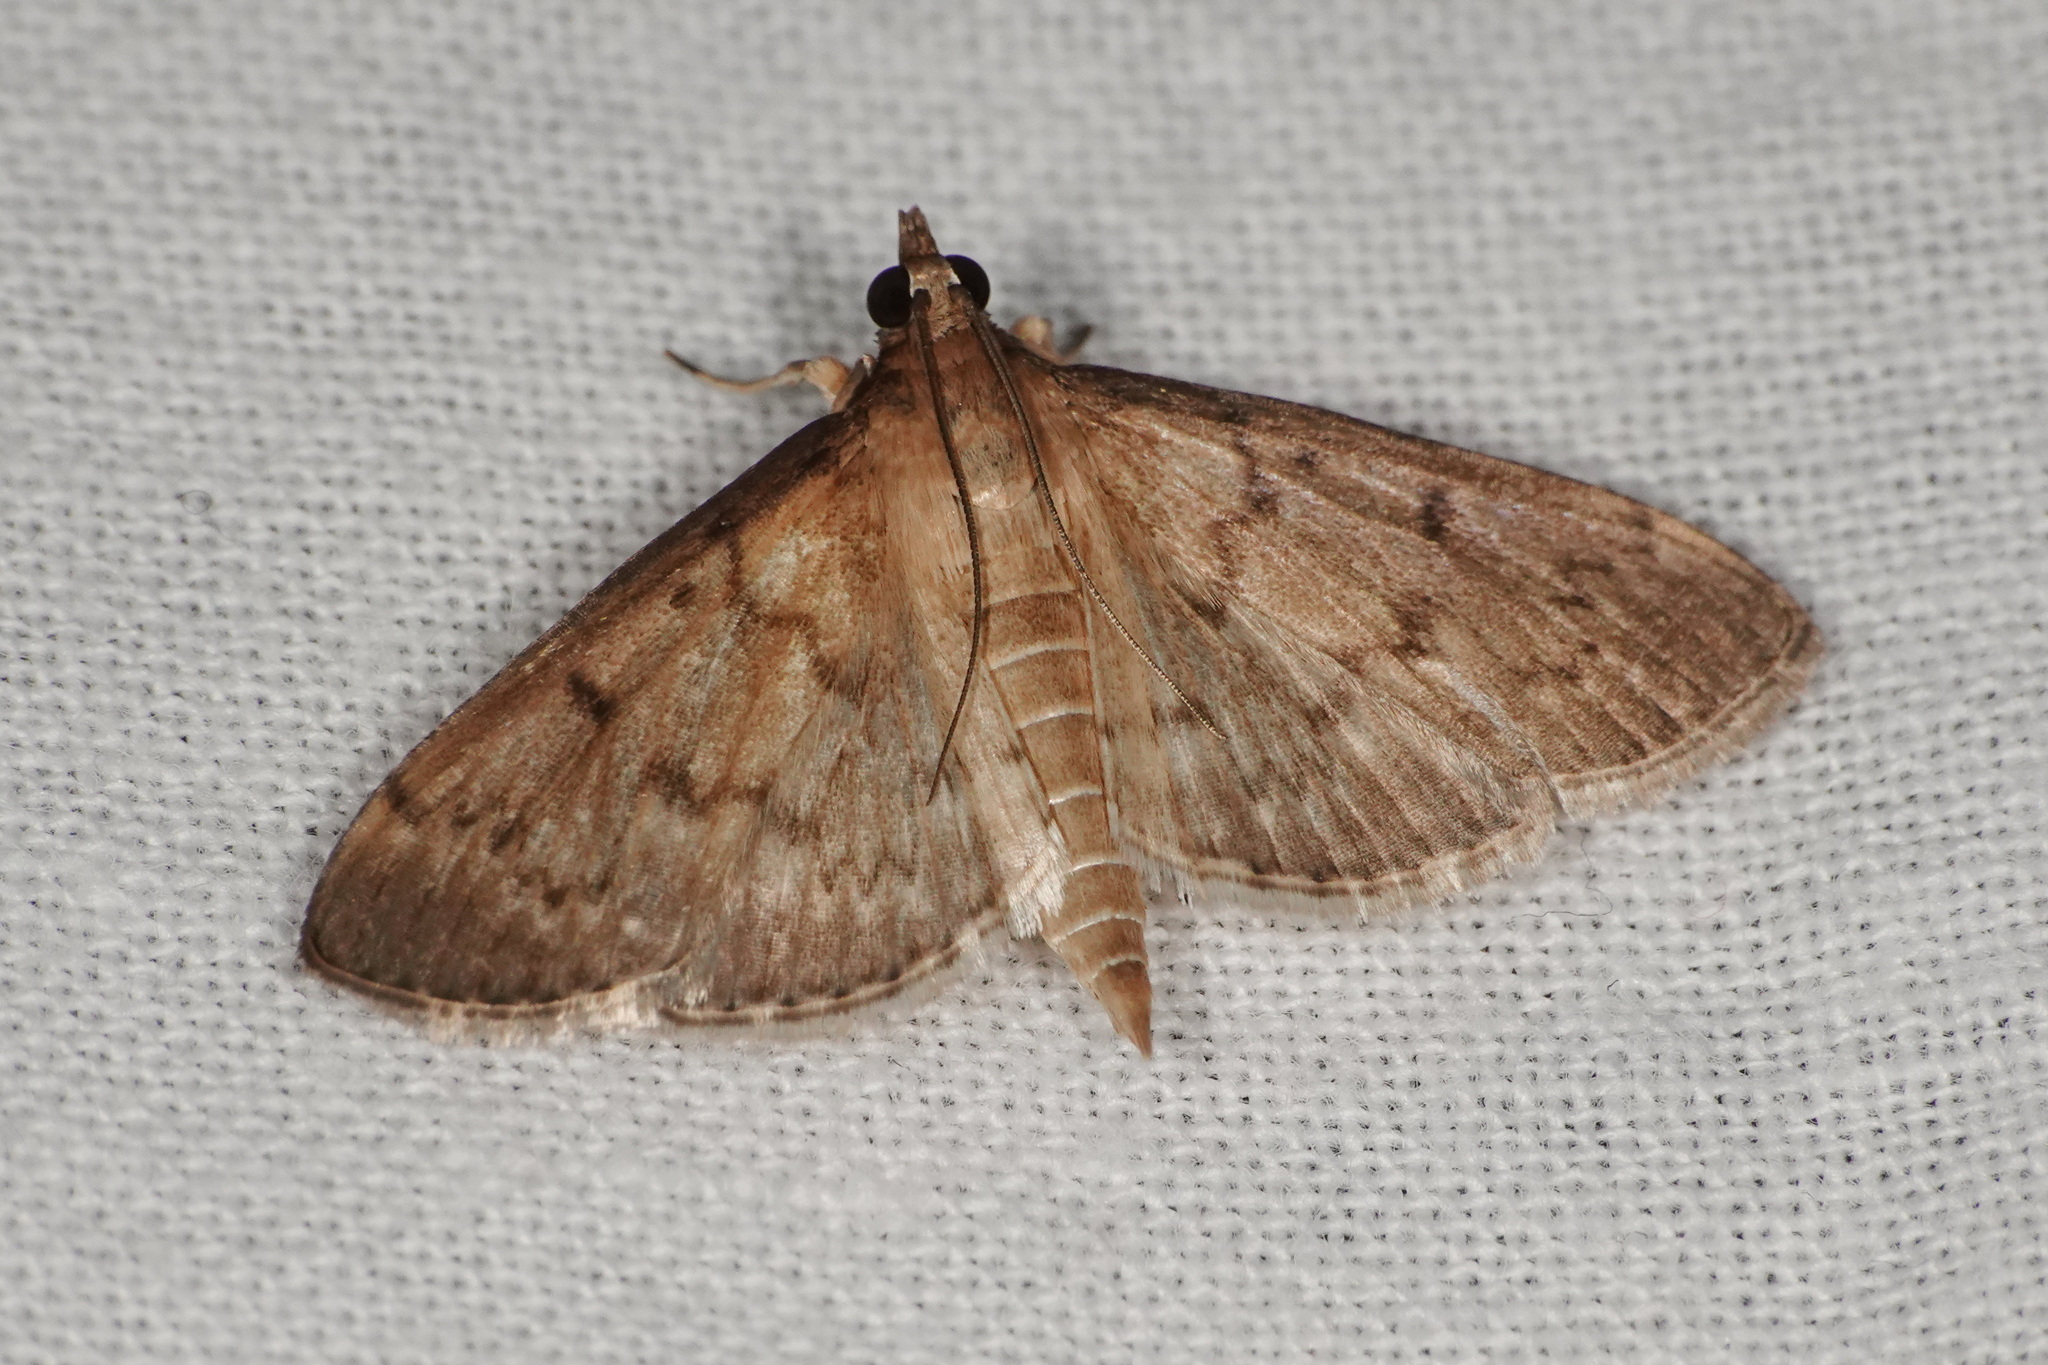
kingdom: Animalia
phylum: Arthropoda
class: Insecta
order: Lepidoptera
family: Crambidae
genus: Herpetogramma
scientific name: Herpetogramma licarsisalis
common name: Grass webworm
